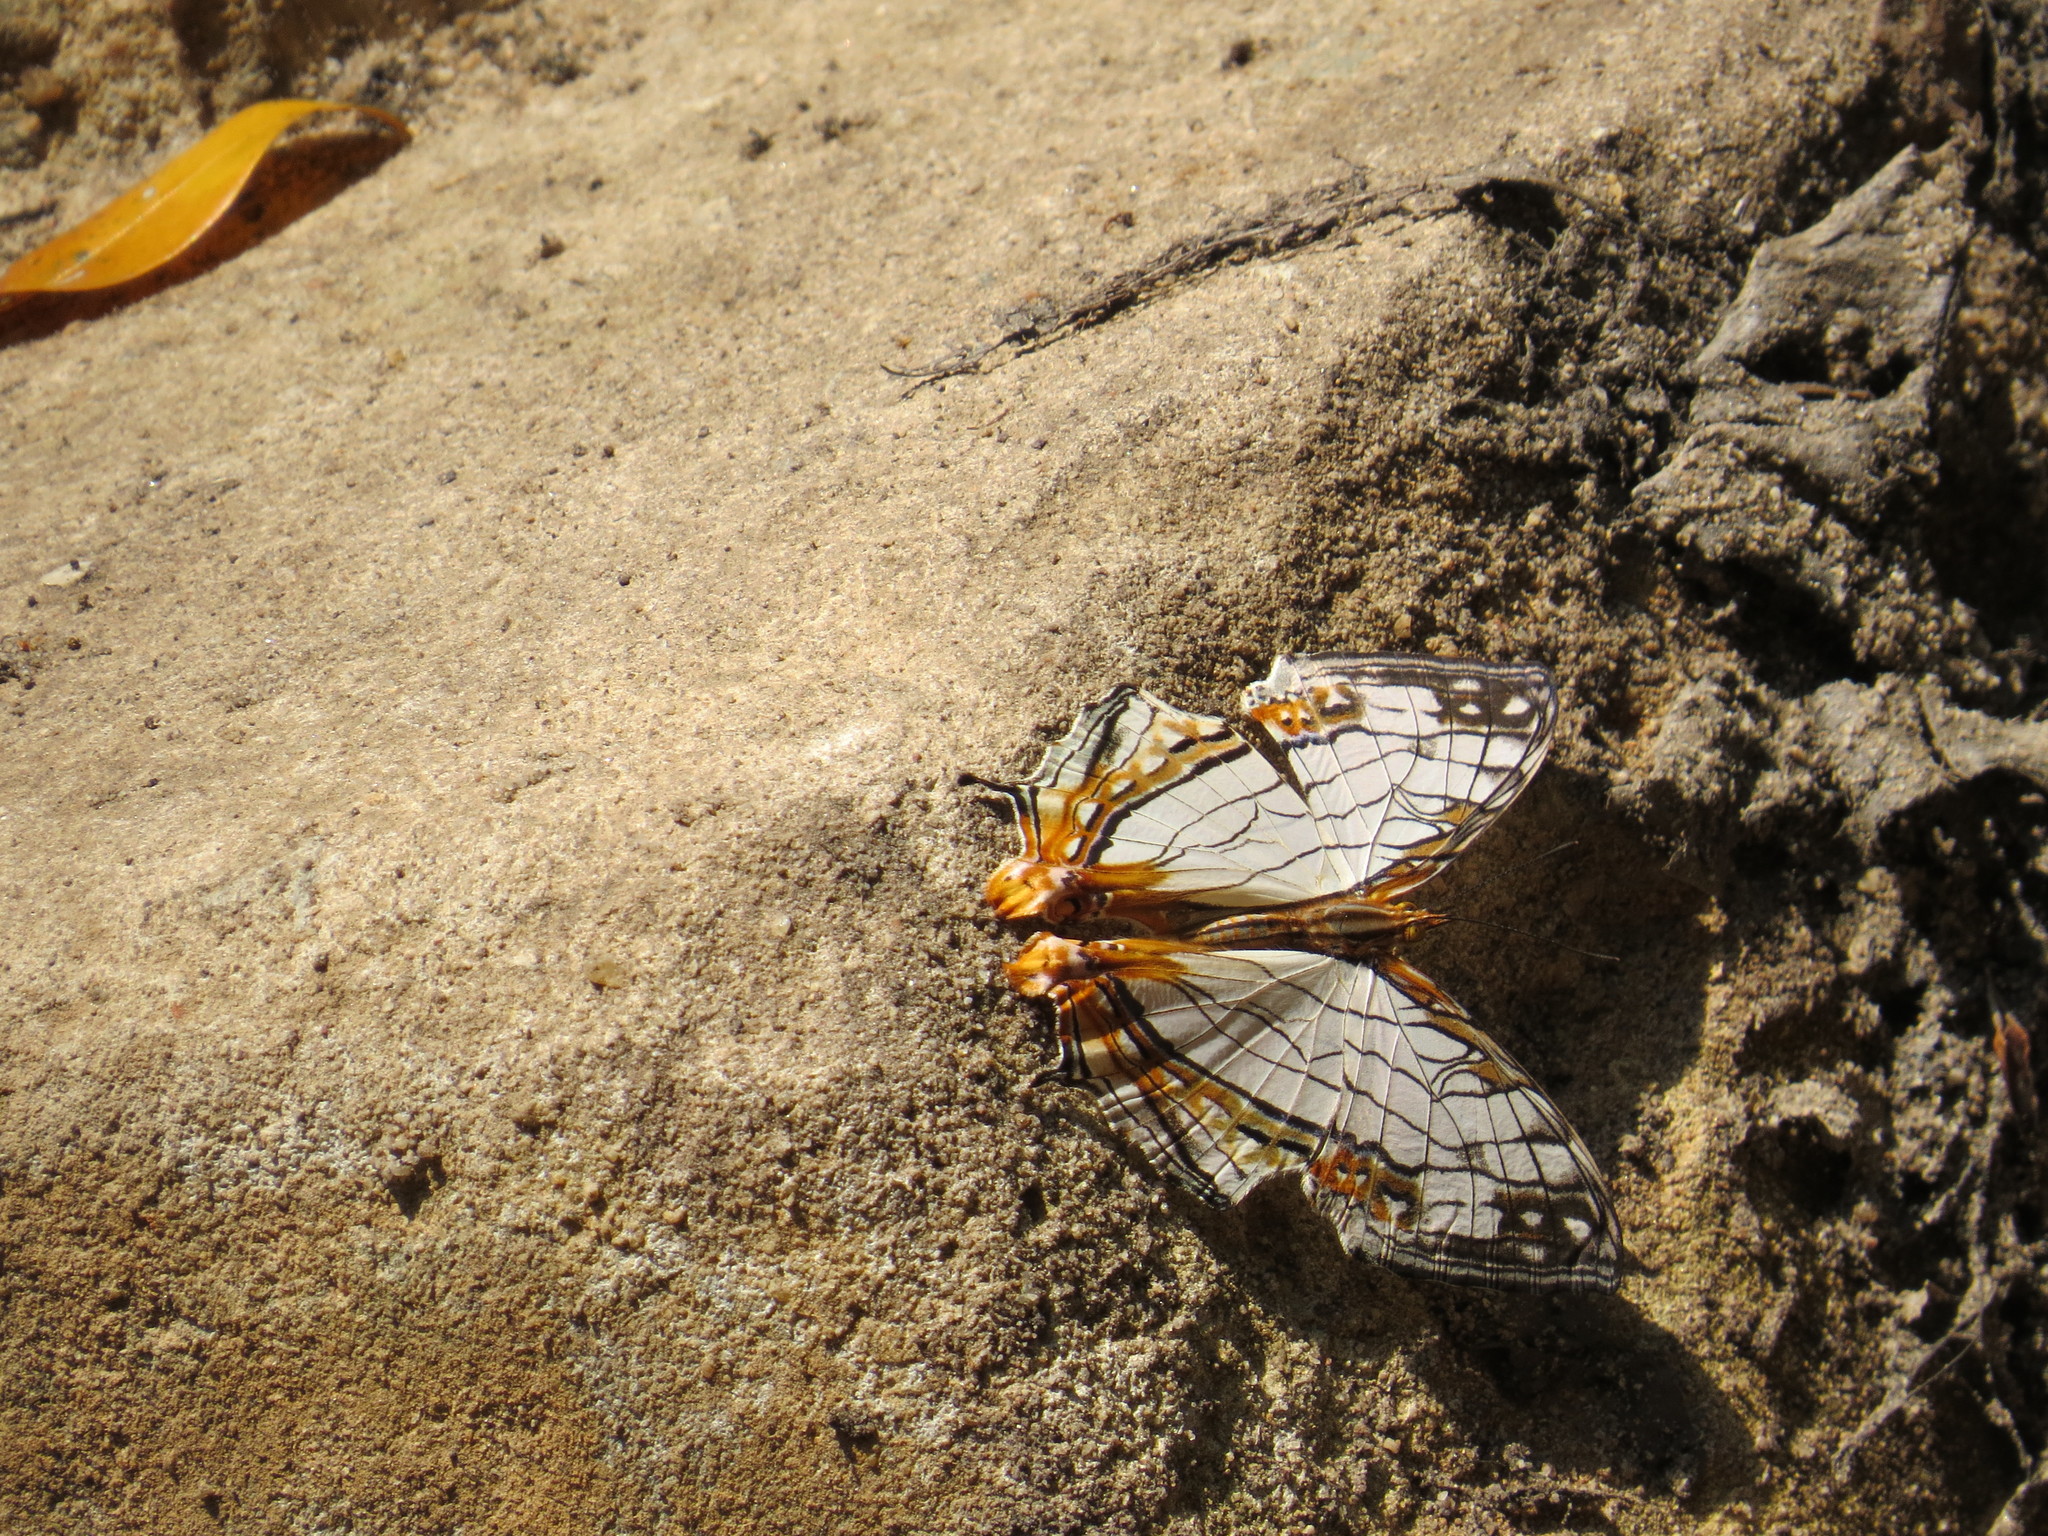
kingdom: Animalia
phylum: Arthropoda
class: Insecta
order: Lepidoptera
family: Nymphalidae
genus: Cyrestis
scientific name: Cyrestis thyodamas
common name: Common mapwing
